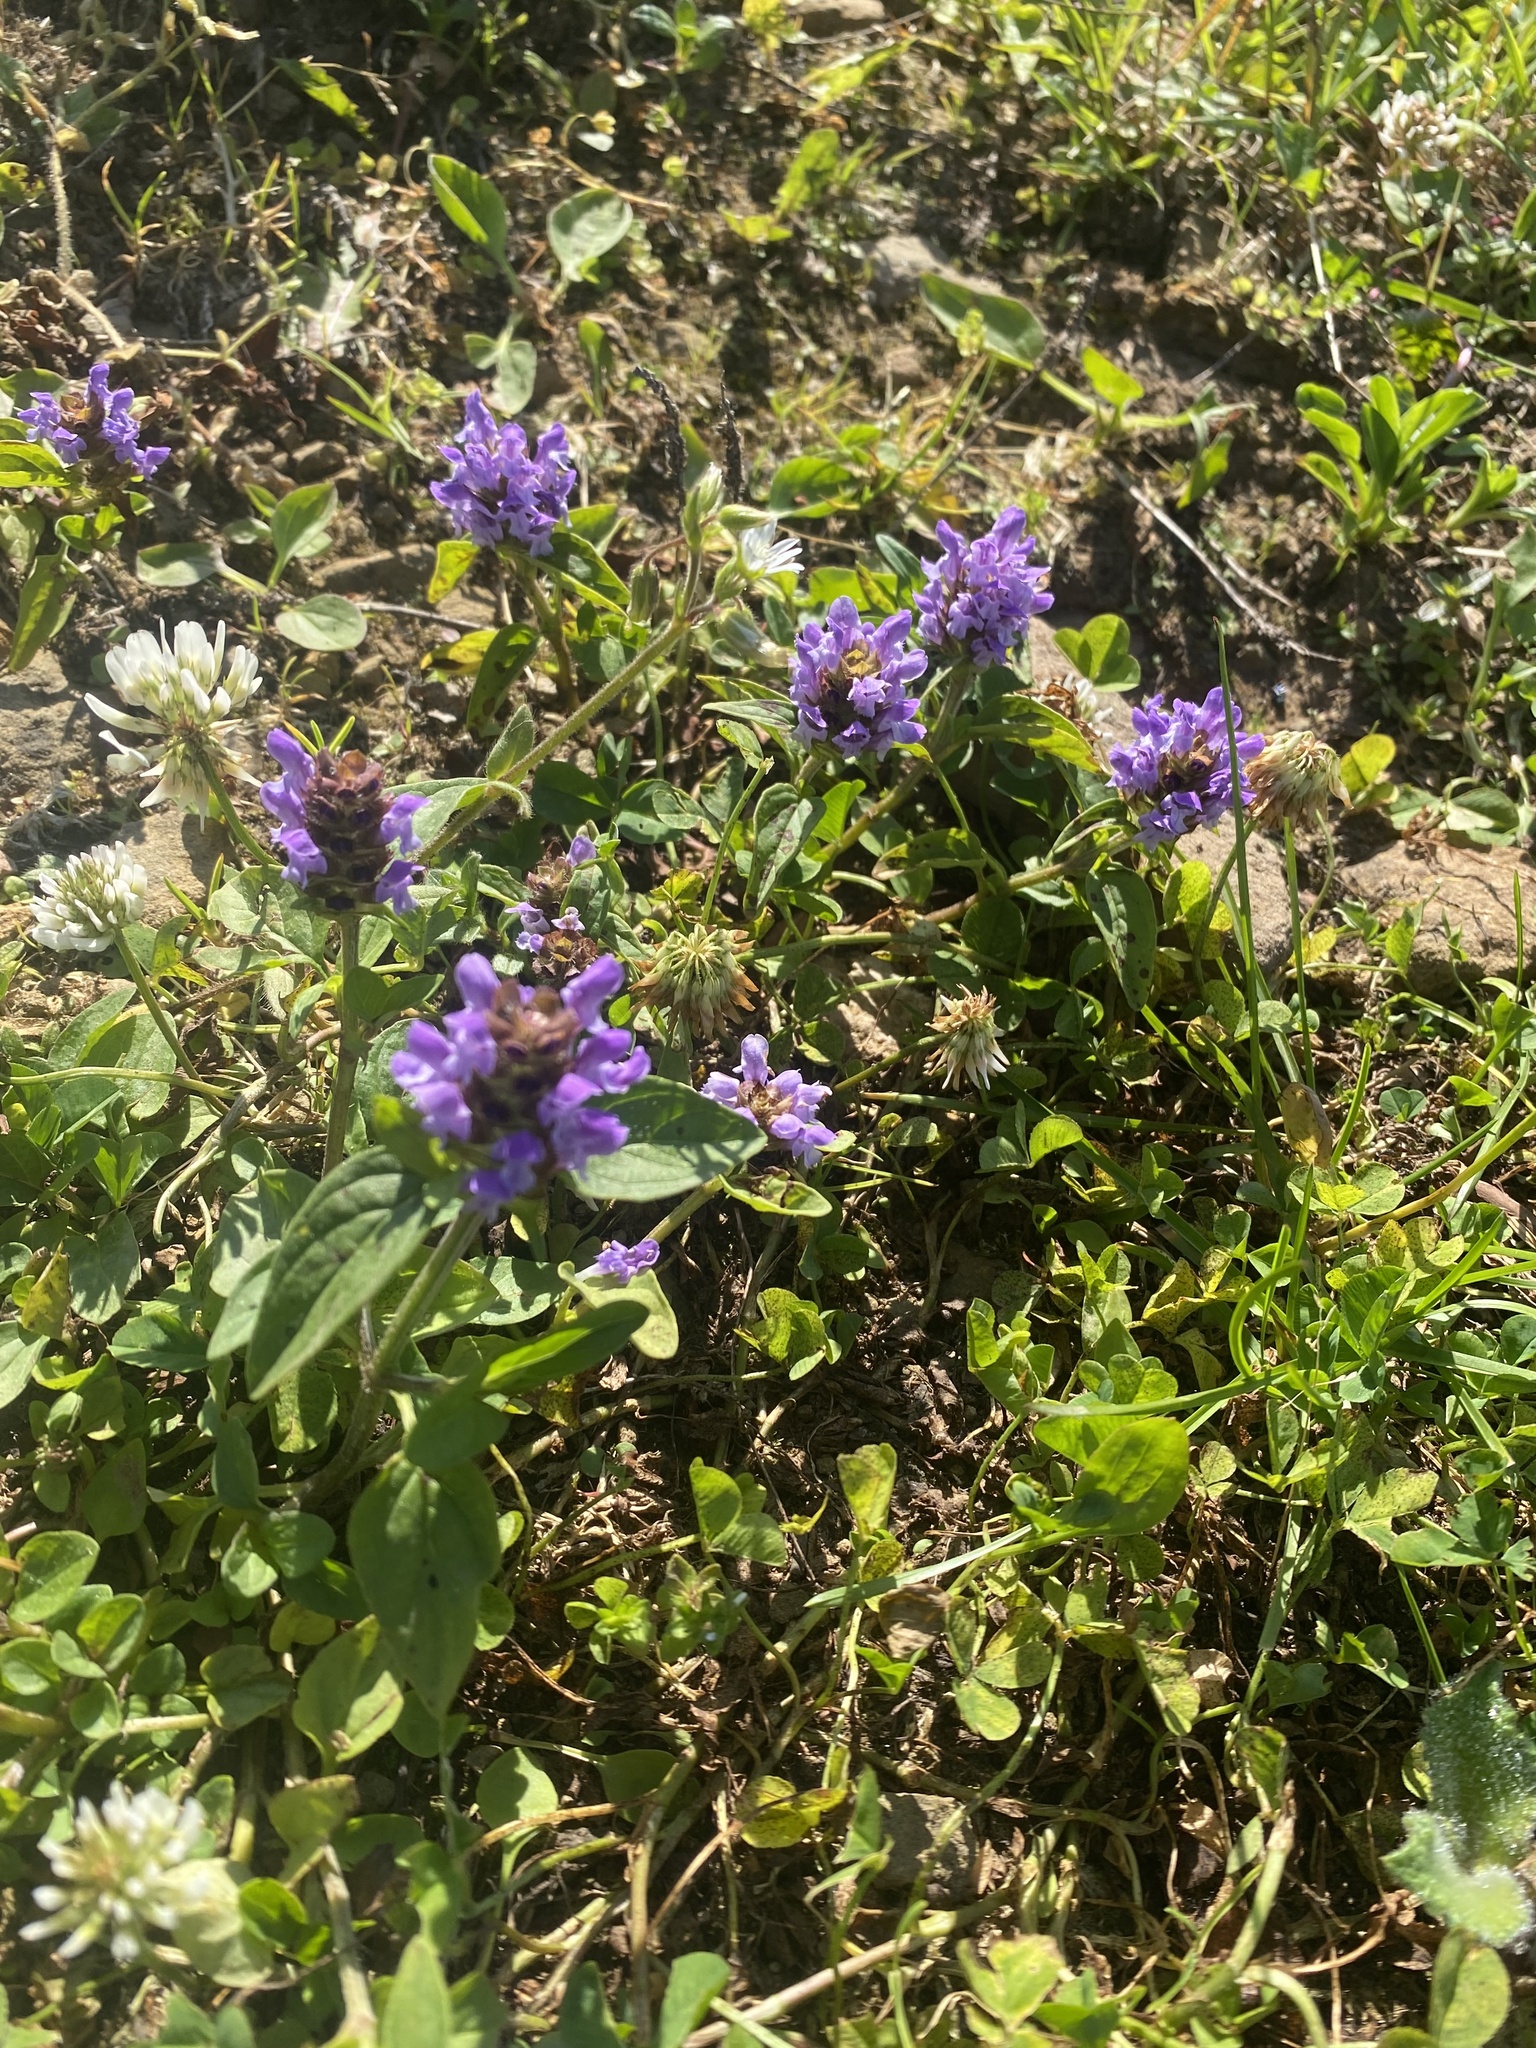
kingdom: Plantae
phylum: Tracheophyta
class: Magnoliopsida
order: Lamiales
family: Lamiaceae
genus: Prunella
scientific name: Prunella vulgaris
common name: Heal-all
